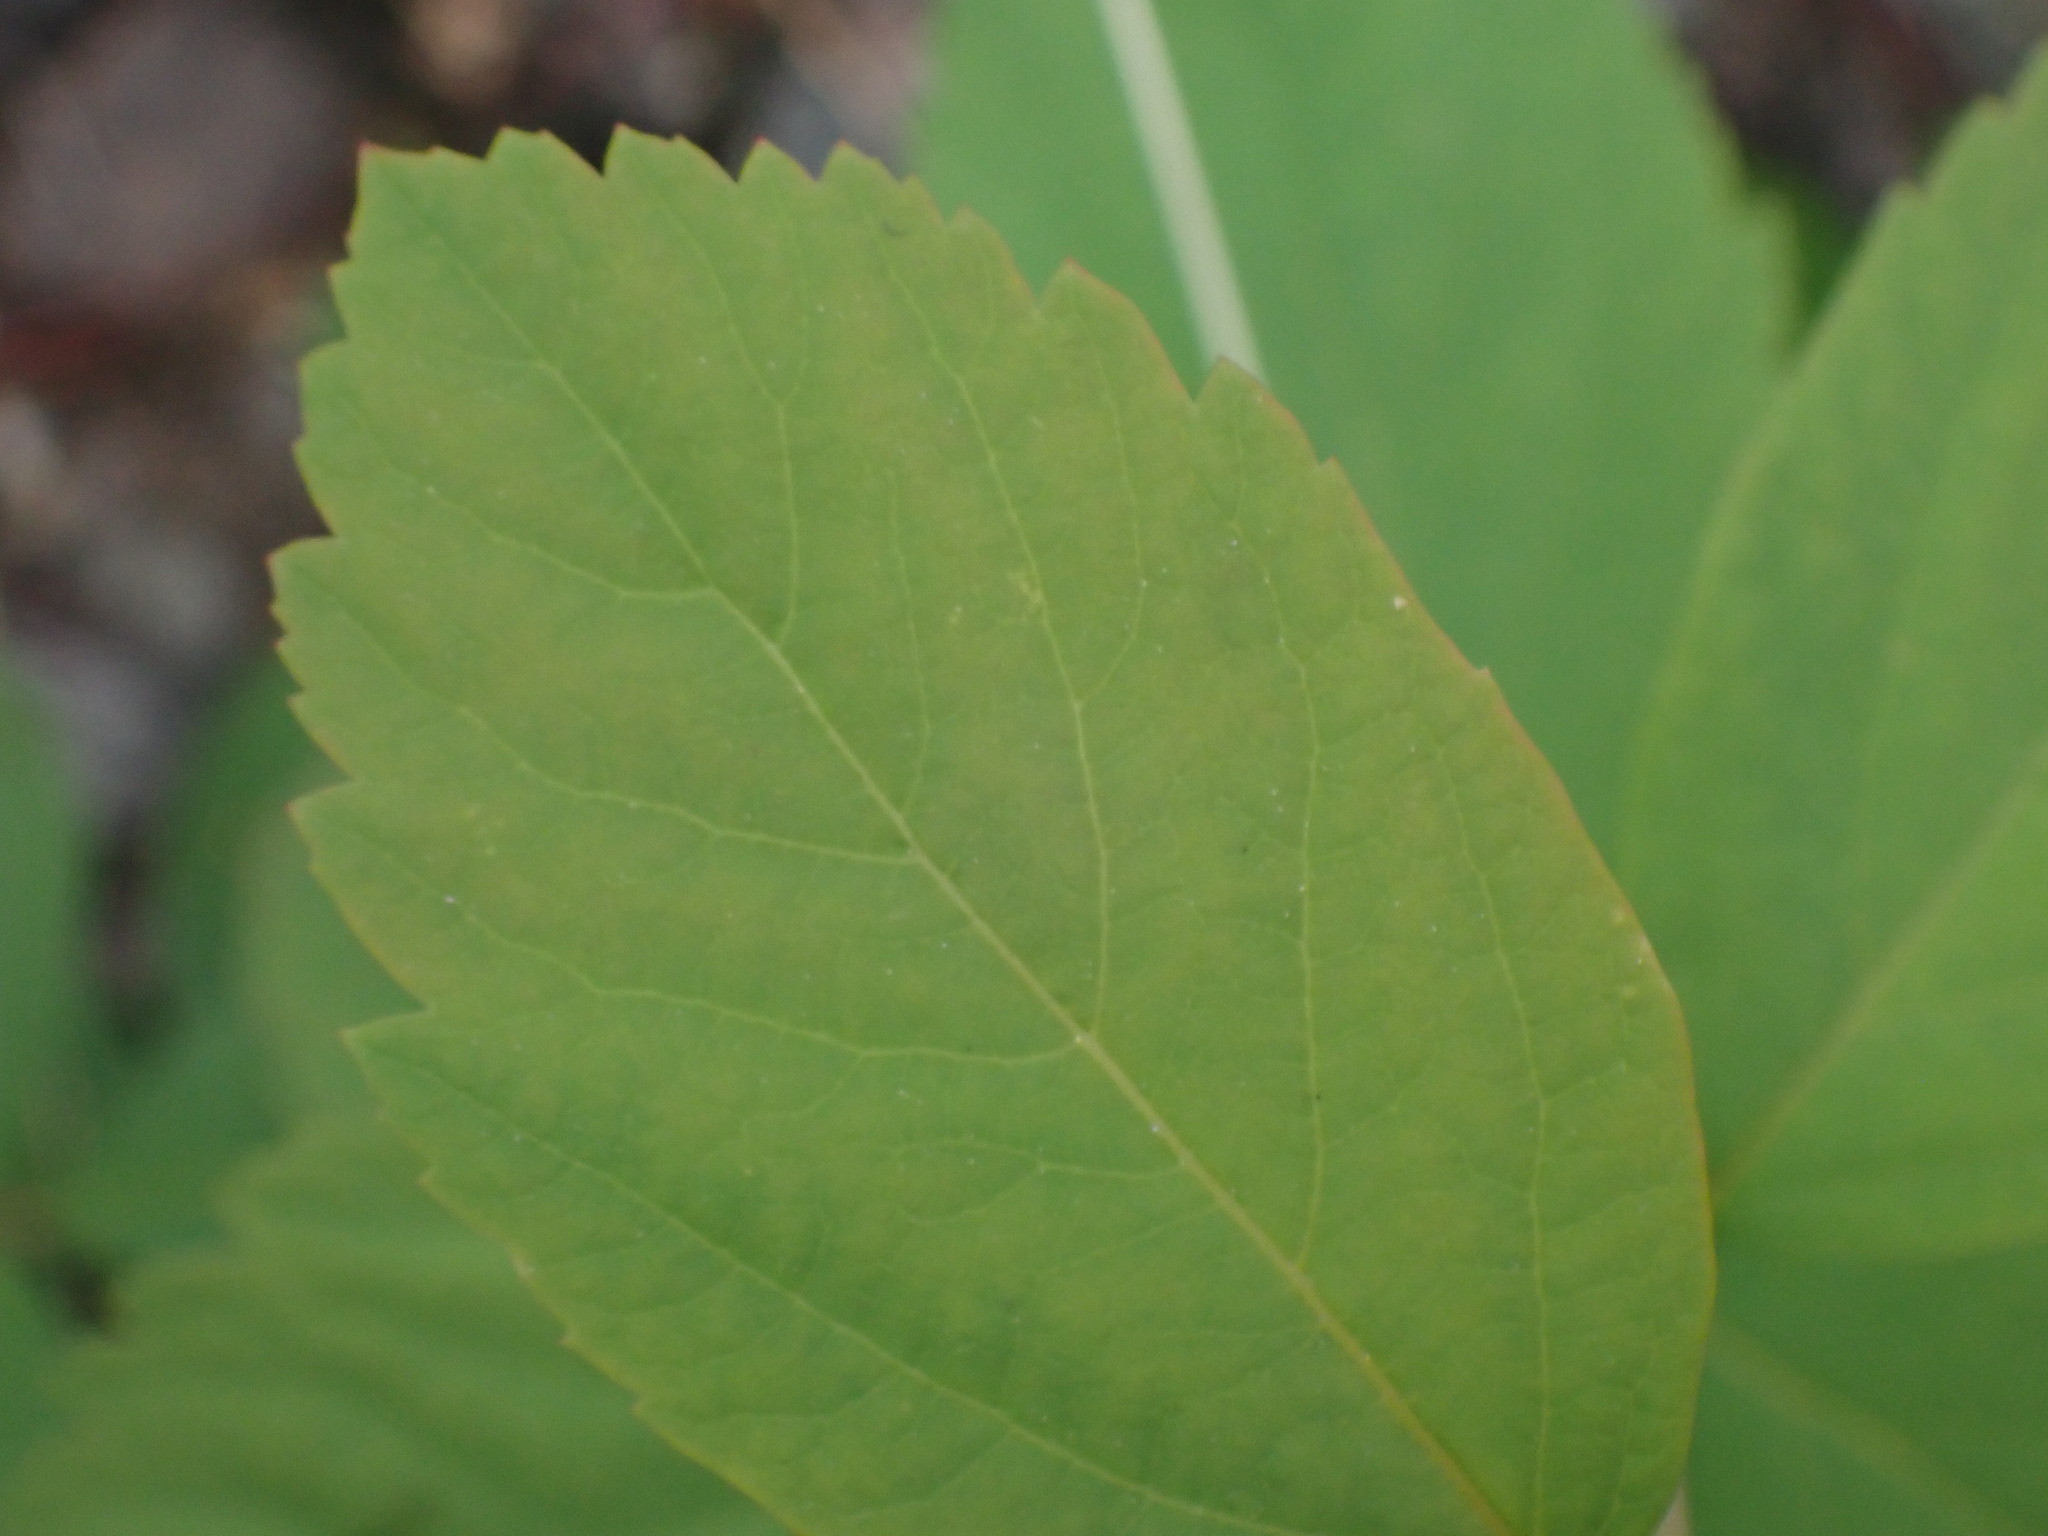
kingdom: Plantae
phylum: Tracheophyta
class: Magnoliopsida
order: Rosales
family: Rosaceae
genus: Spiraea
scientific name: Spiraea lucida
